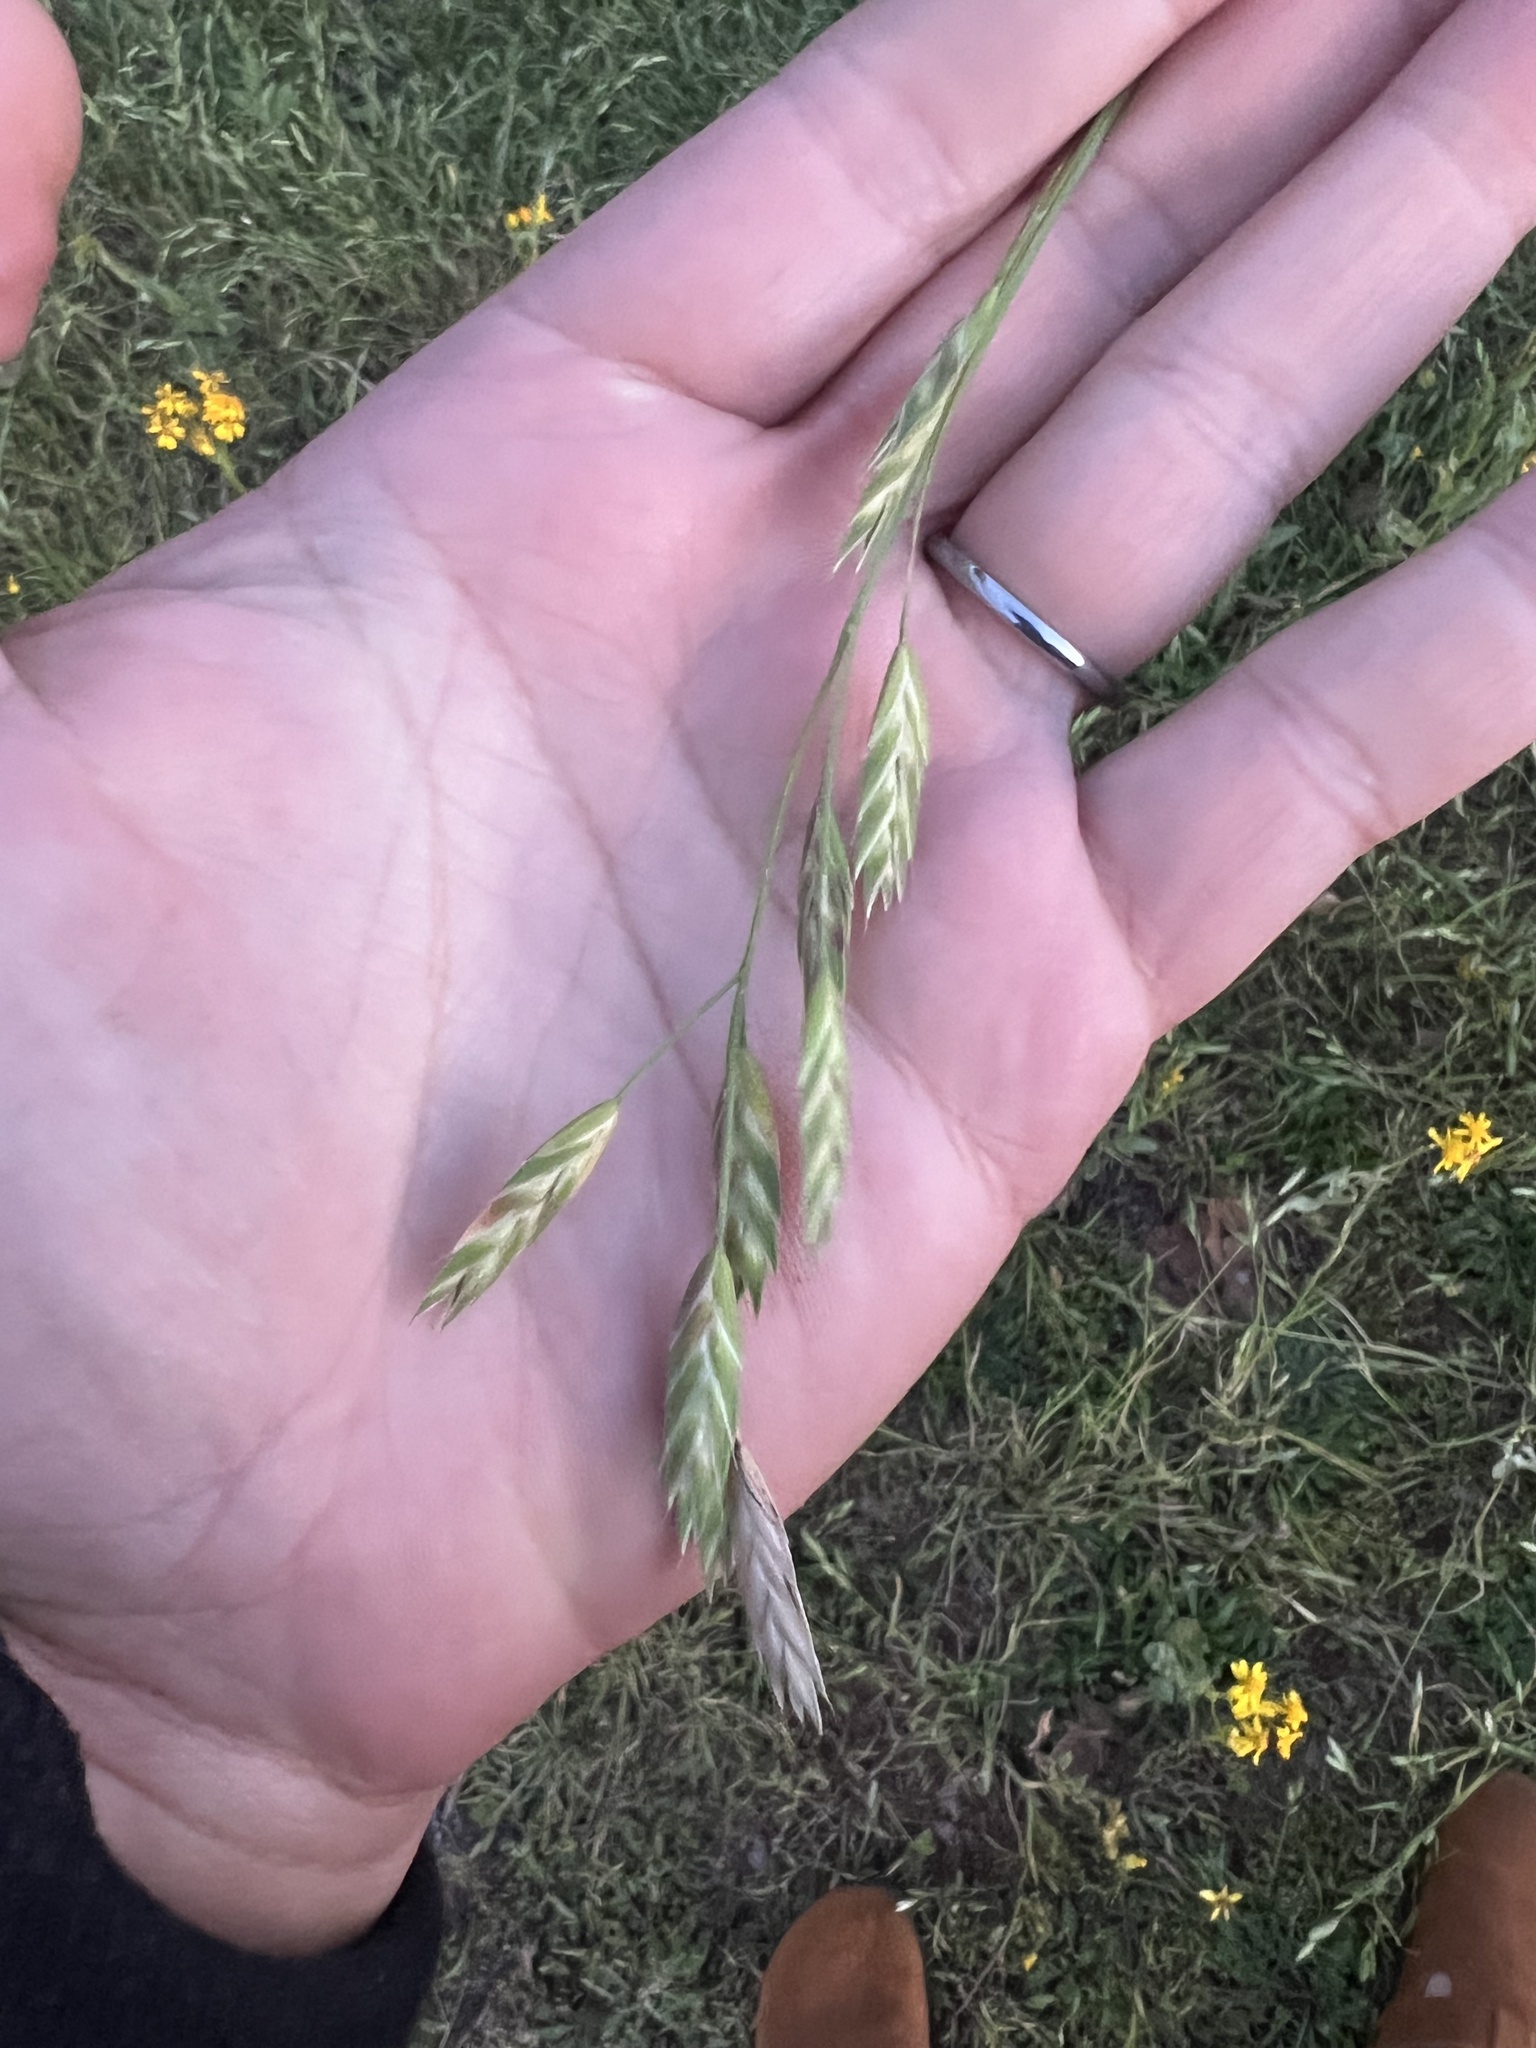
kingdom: Plantae
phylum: Tracheophyta
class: Liliopsida
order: Poales
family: Poaceae
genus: Bromus
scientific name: Bromus catharticus
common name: Rescuegrass
